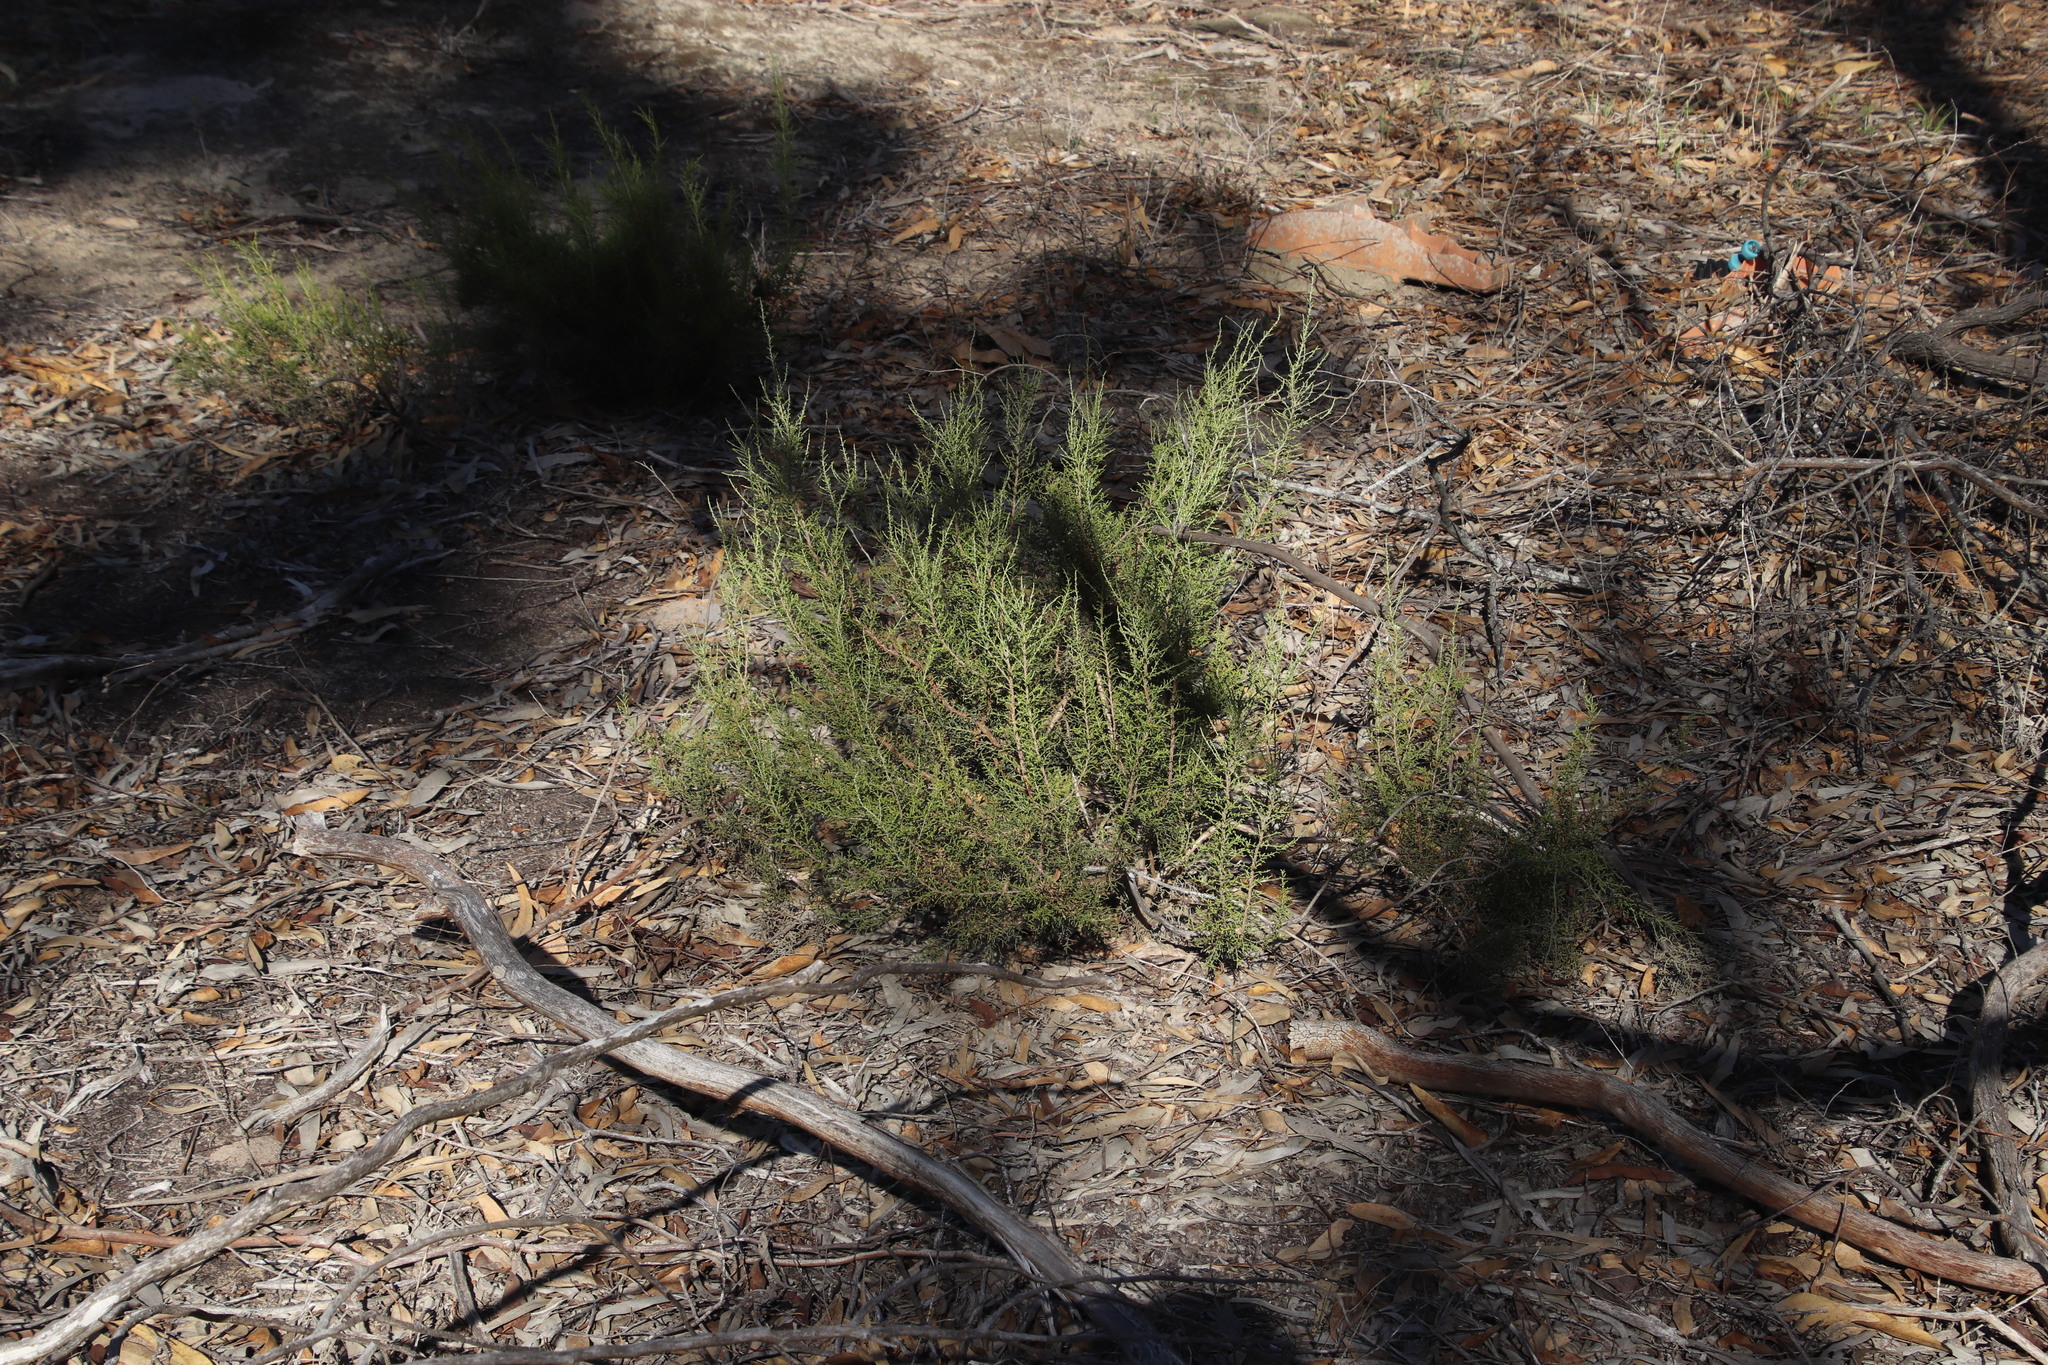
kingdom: Plantae
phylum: Tracheophyta
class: Magnoliopsida
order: Asterales
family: Asteraceae
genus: Dicerothamnus
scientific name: Dicerothamnus rhinocerotis
